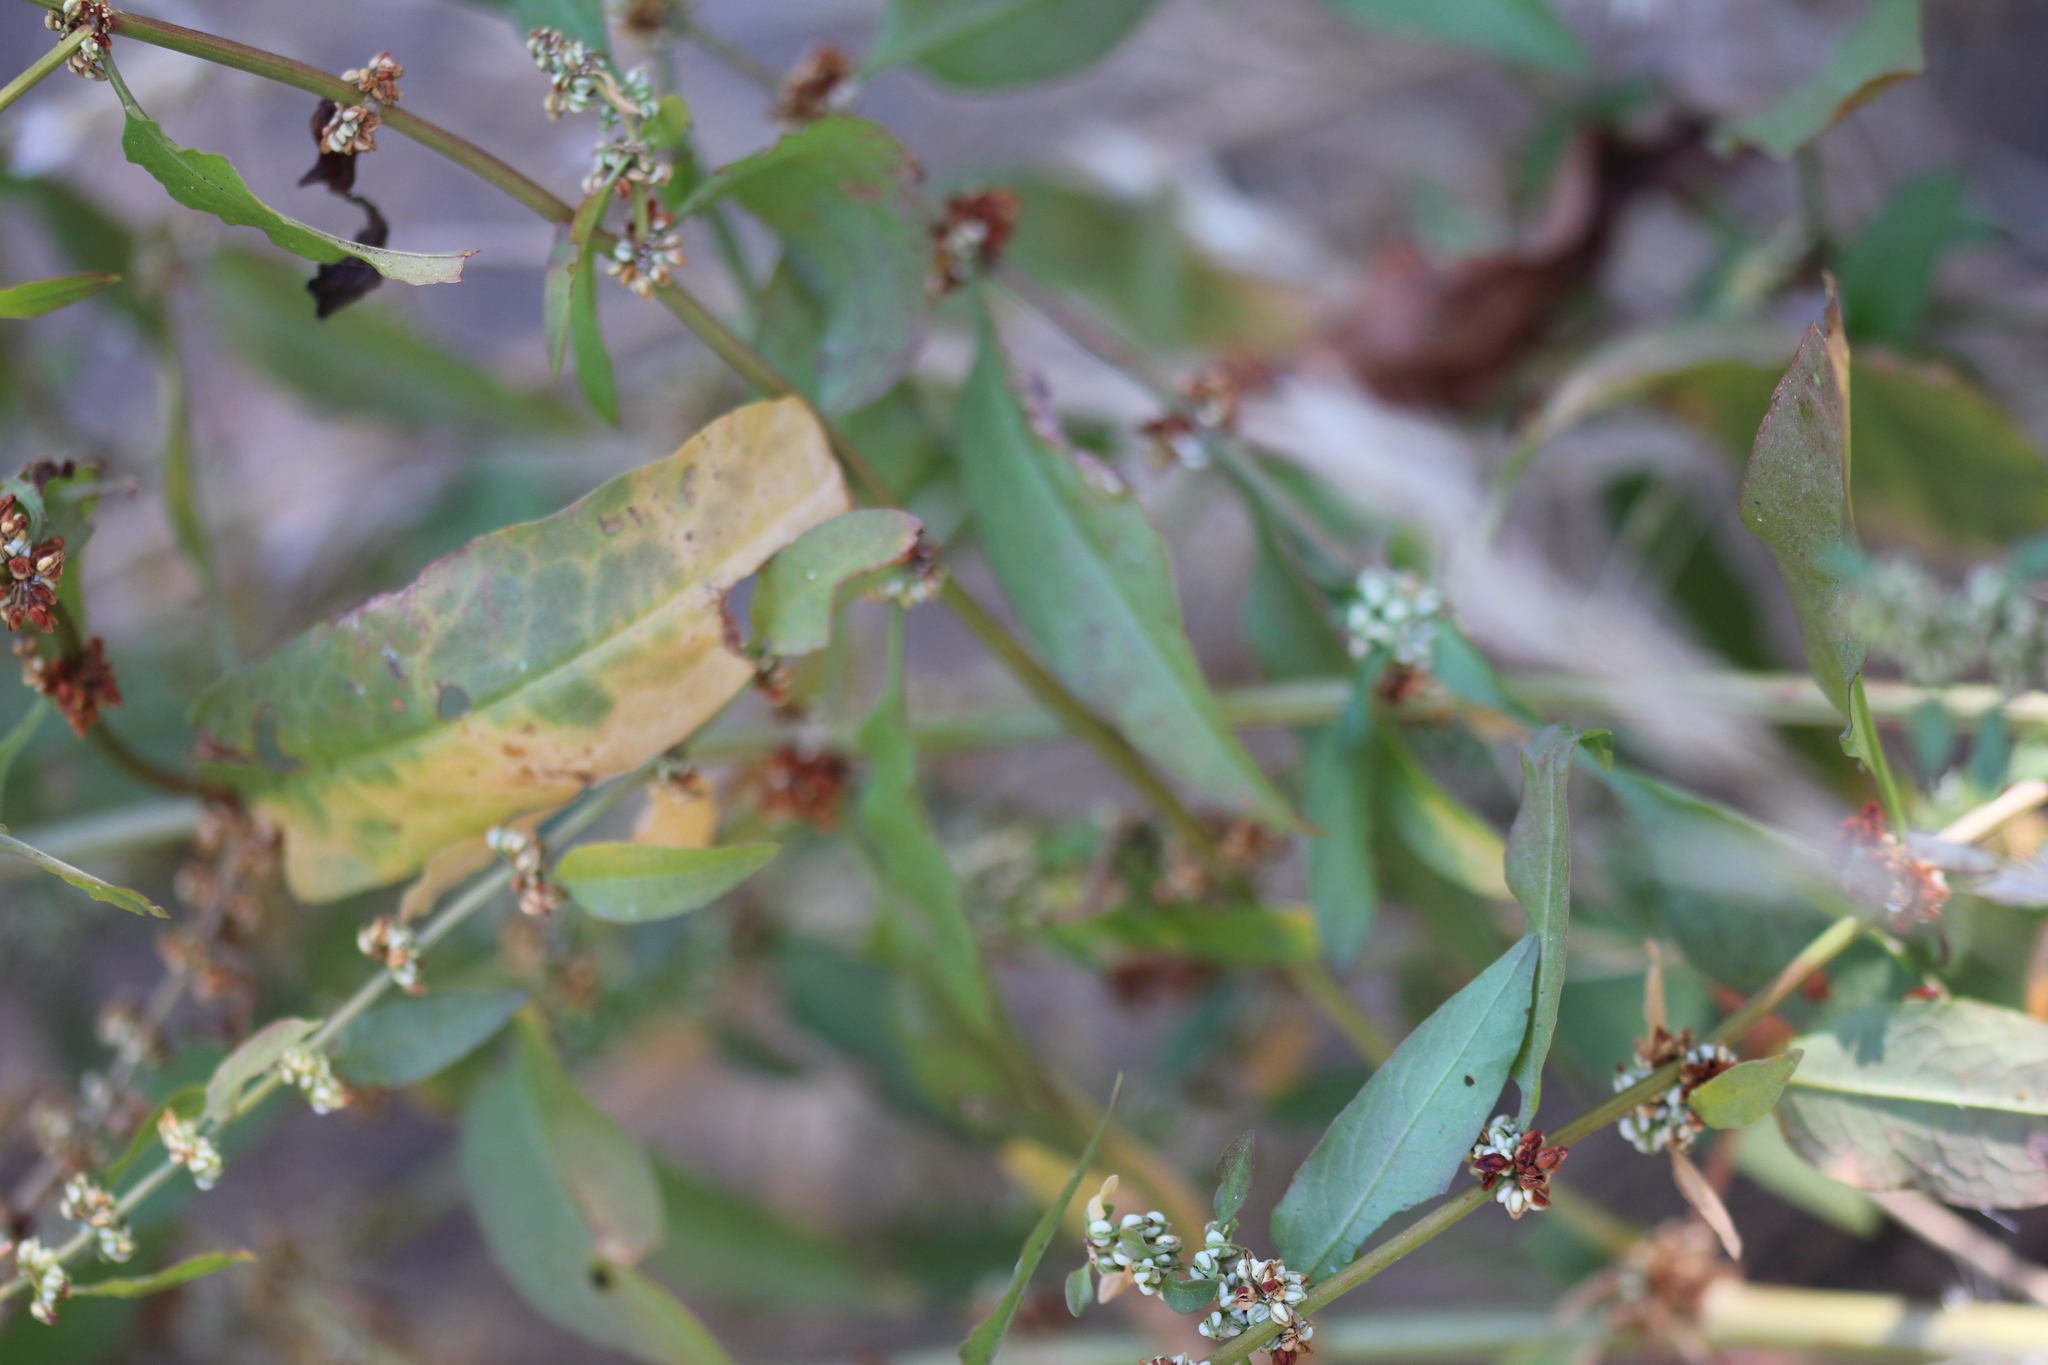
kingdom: Plantae
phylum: Tracheophyta
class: Magnoliopsida
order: Caryophyllales
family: Polygonaceae
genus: Rumex
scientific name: Rumex conglomeratus
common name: Clustered dock
